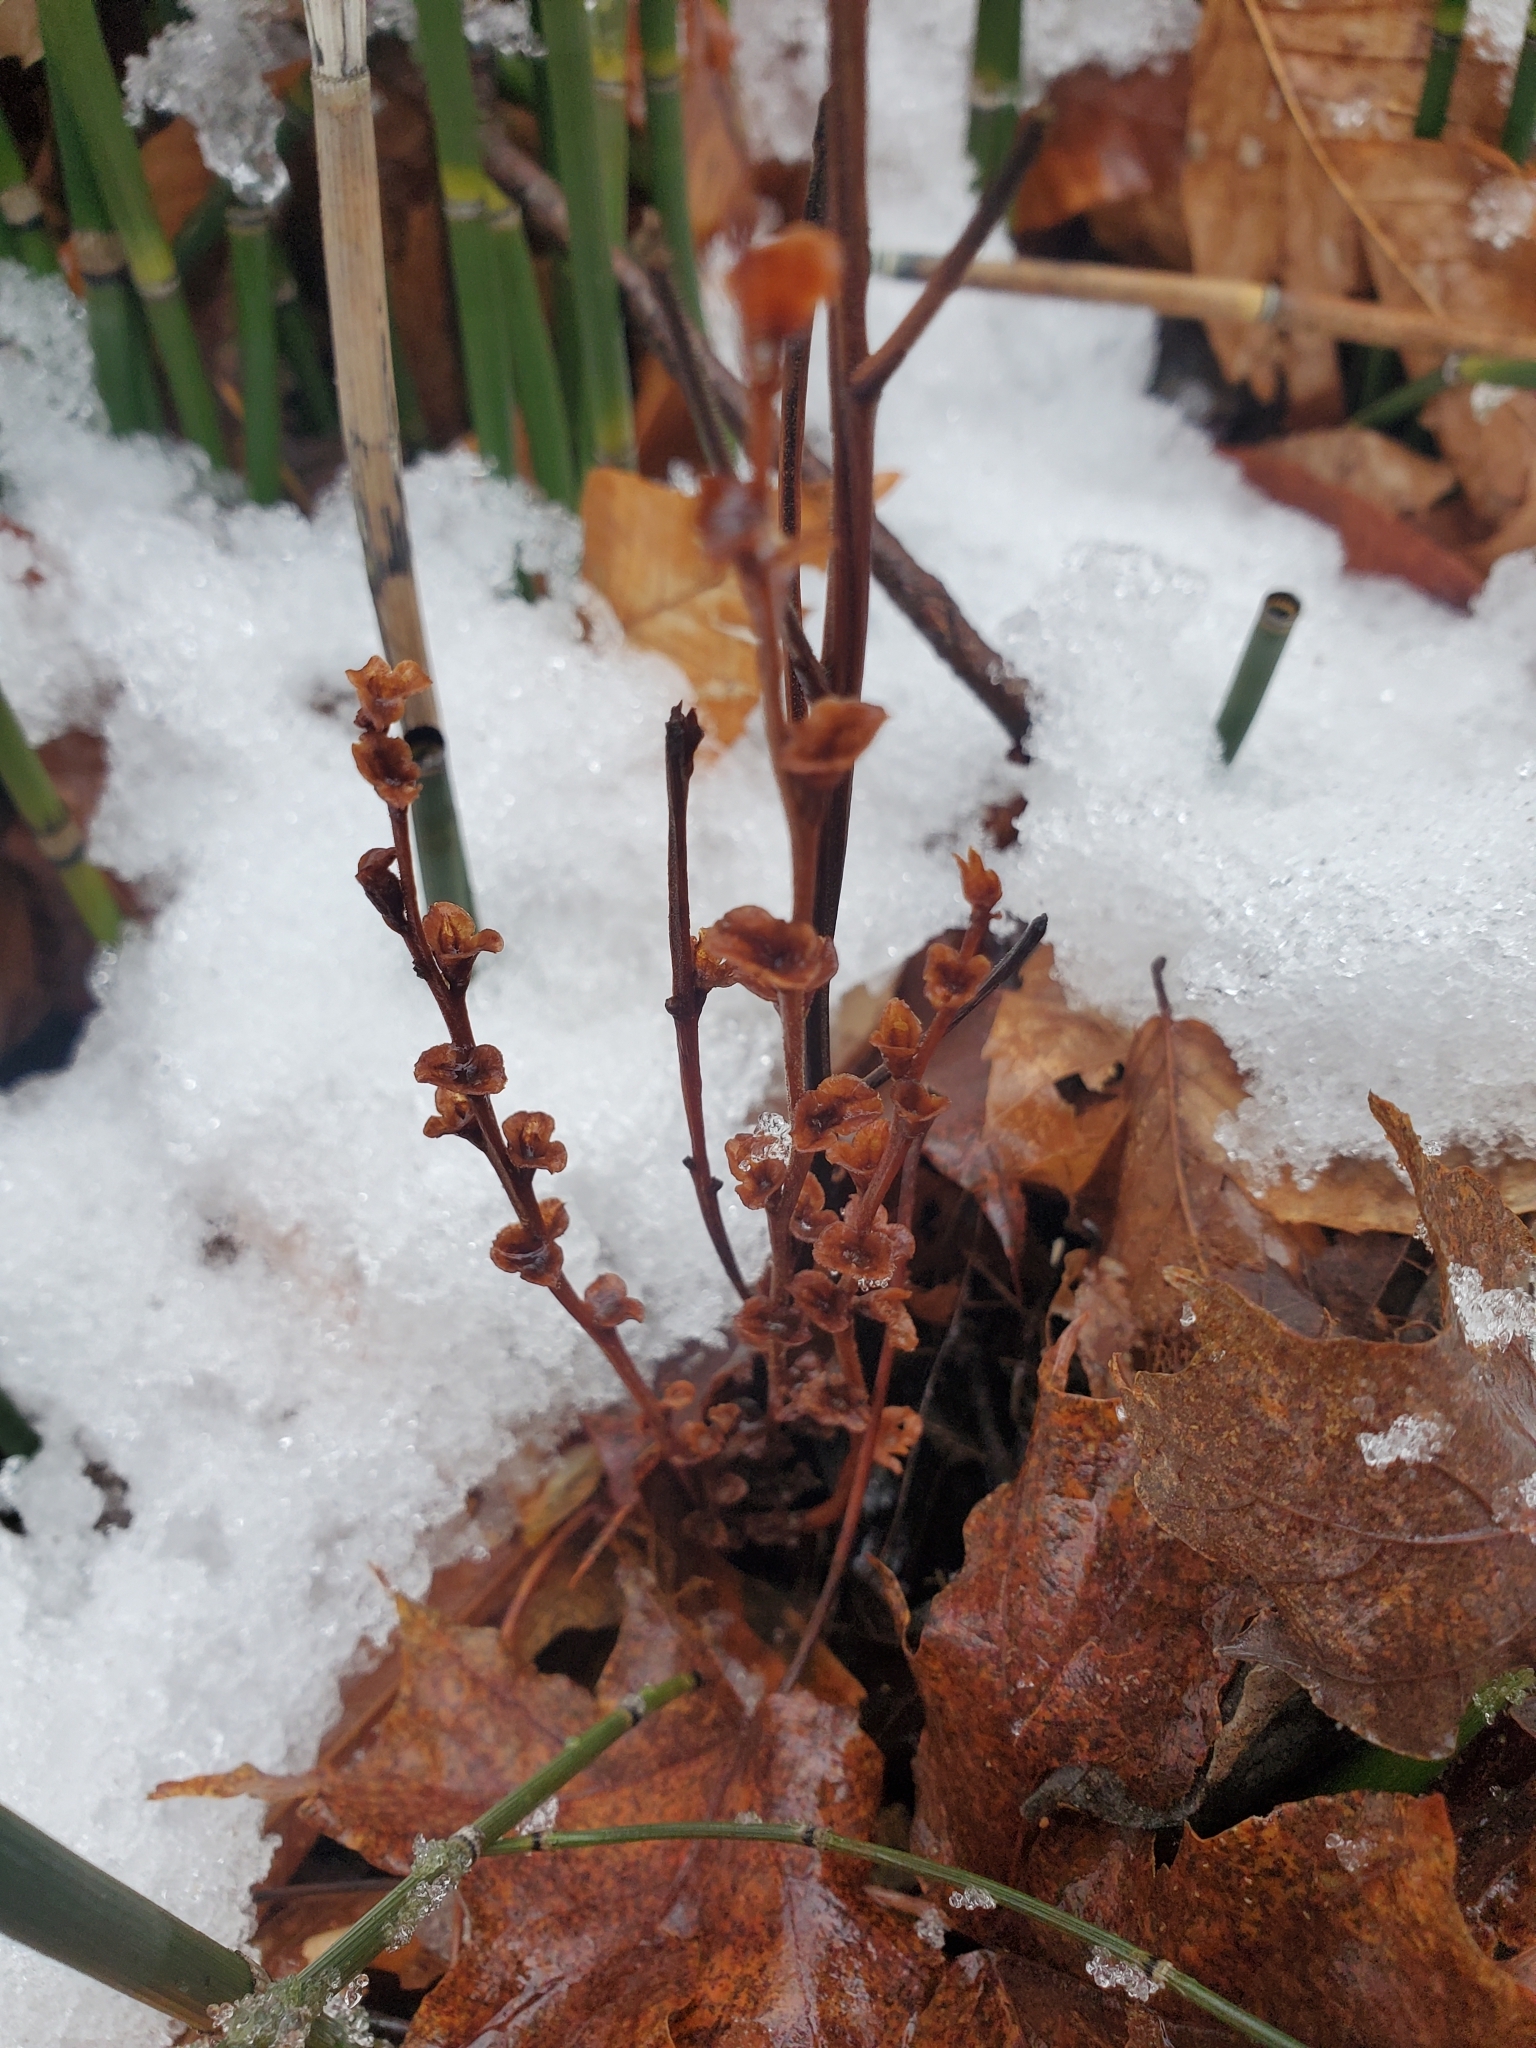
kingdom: Plantae
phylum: Tracheophyta
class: Magnoliopsida
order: Lamiales
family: Orobanchaceae
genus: Epifagus
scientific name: Epifagus virginiana
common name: Beechdrops
